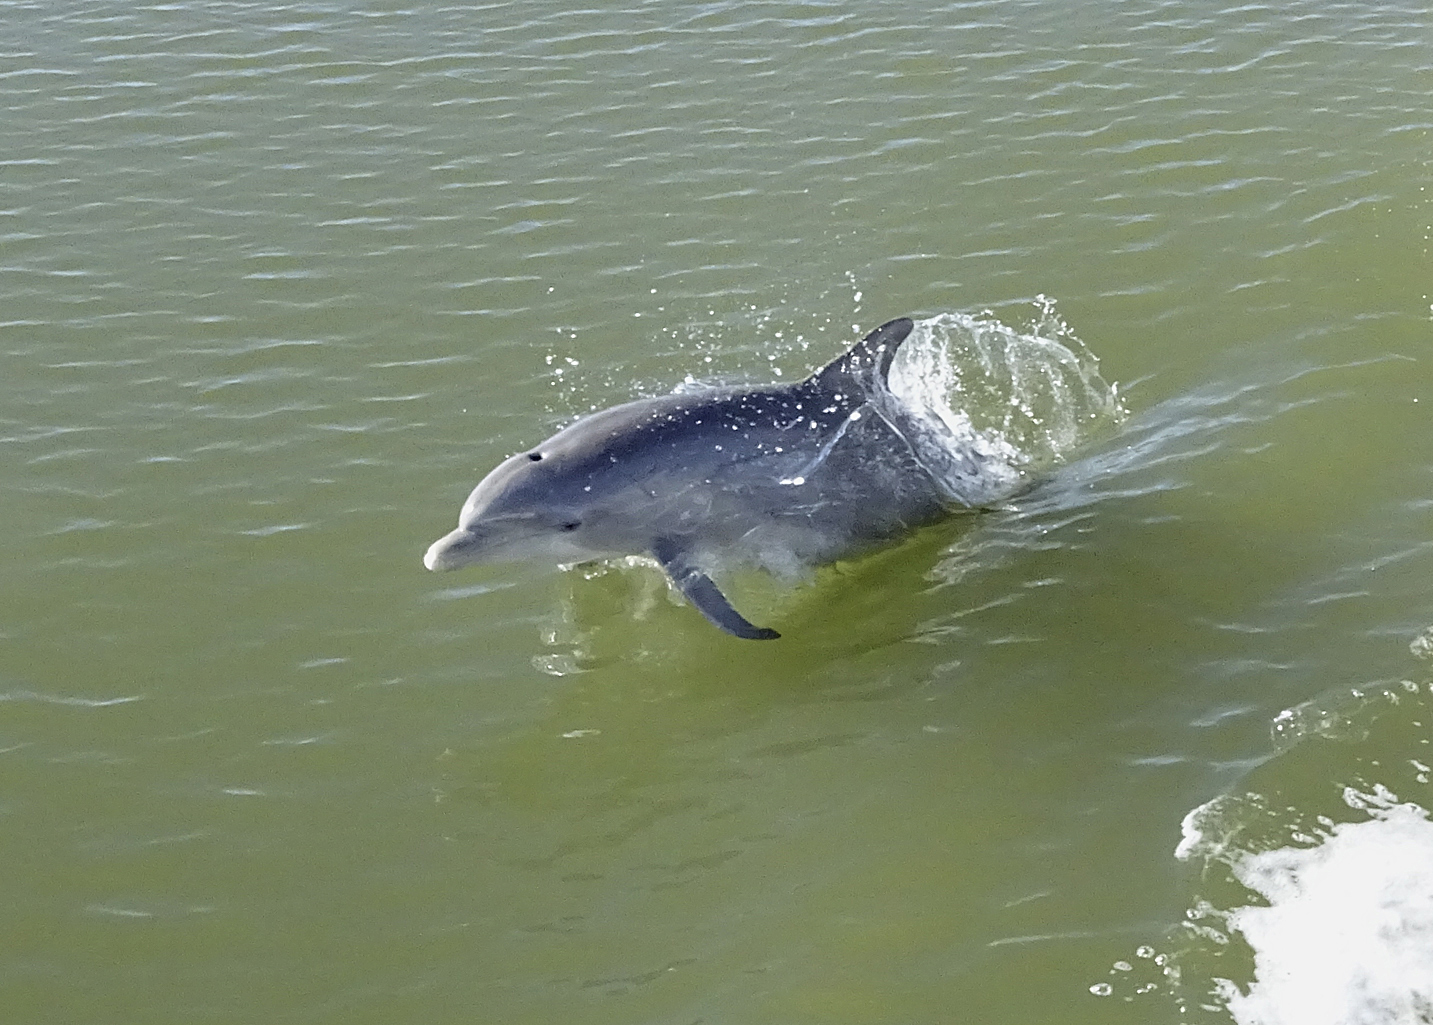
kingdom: Animalia
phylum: Chordata
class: Mammalia
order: Cetacea
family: Delphinidae
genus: Tursiops
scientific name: Tursiops truncatus
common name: Bottlenose dolphin
